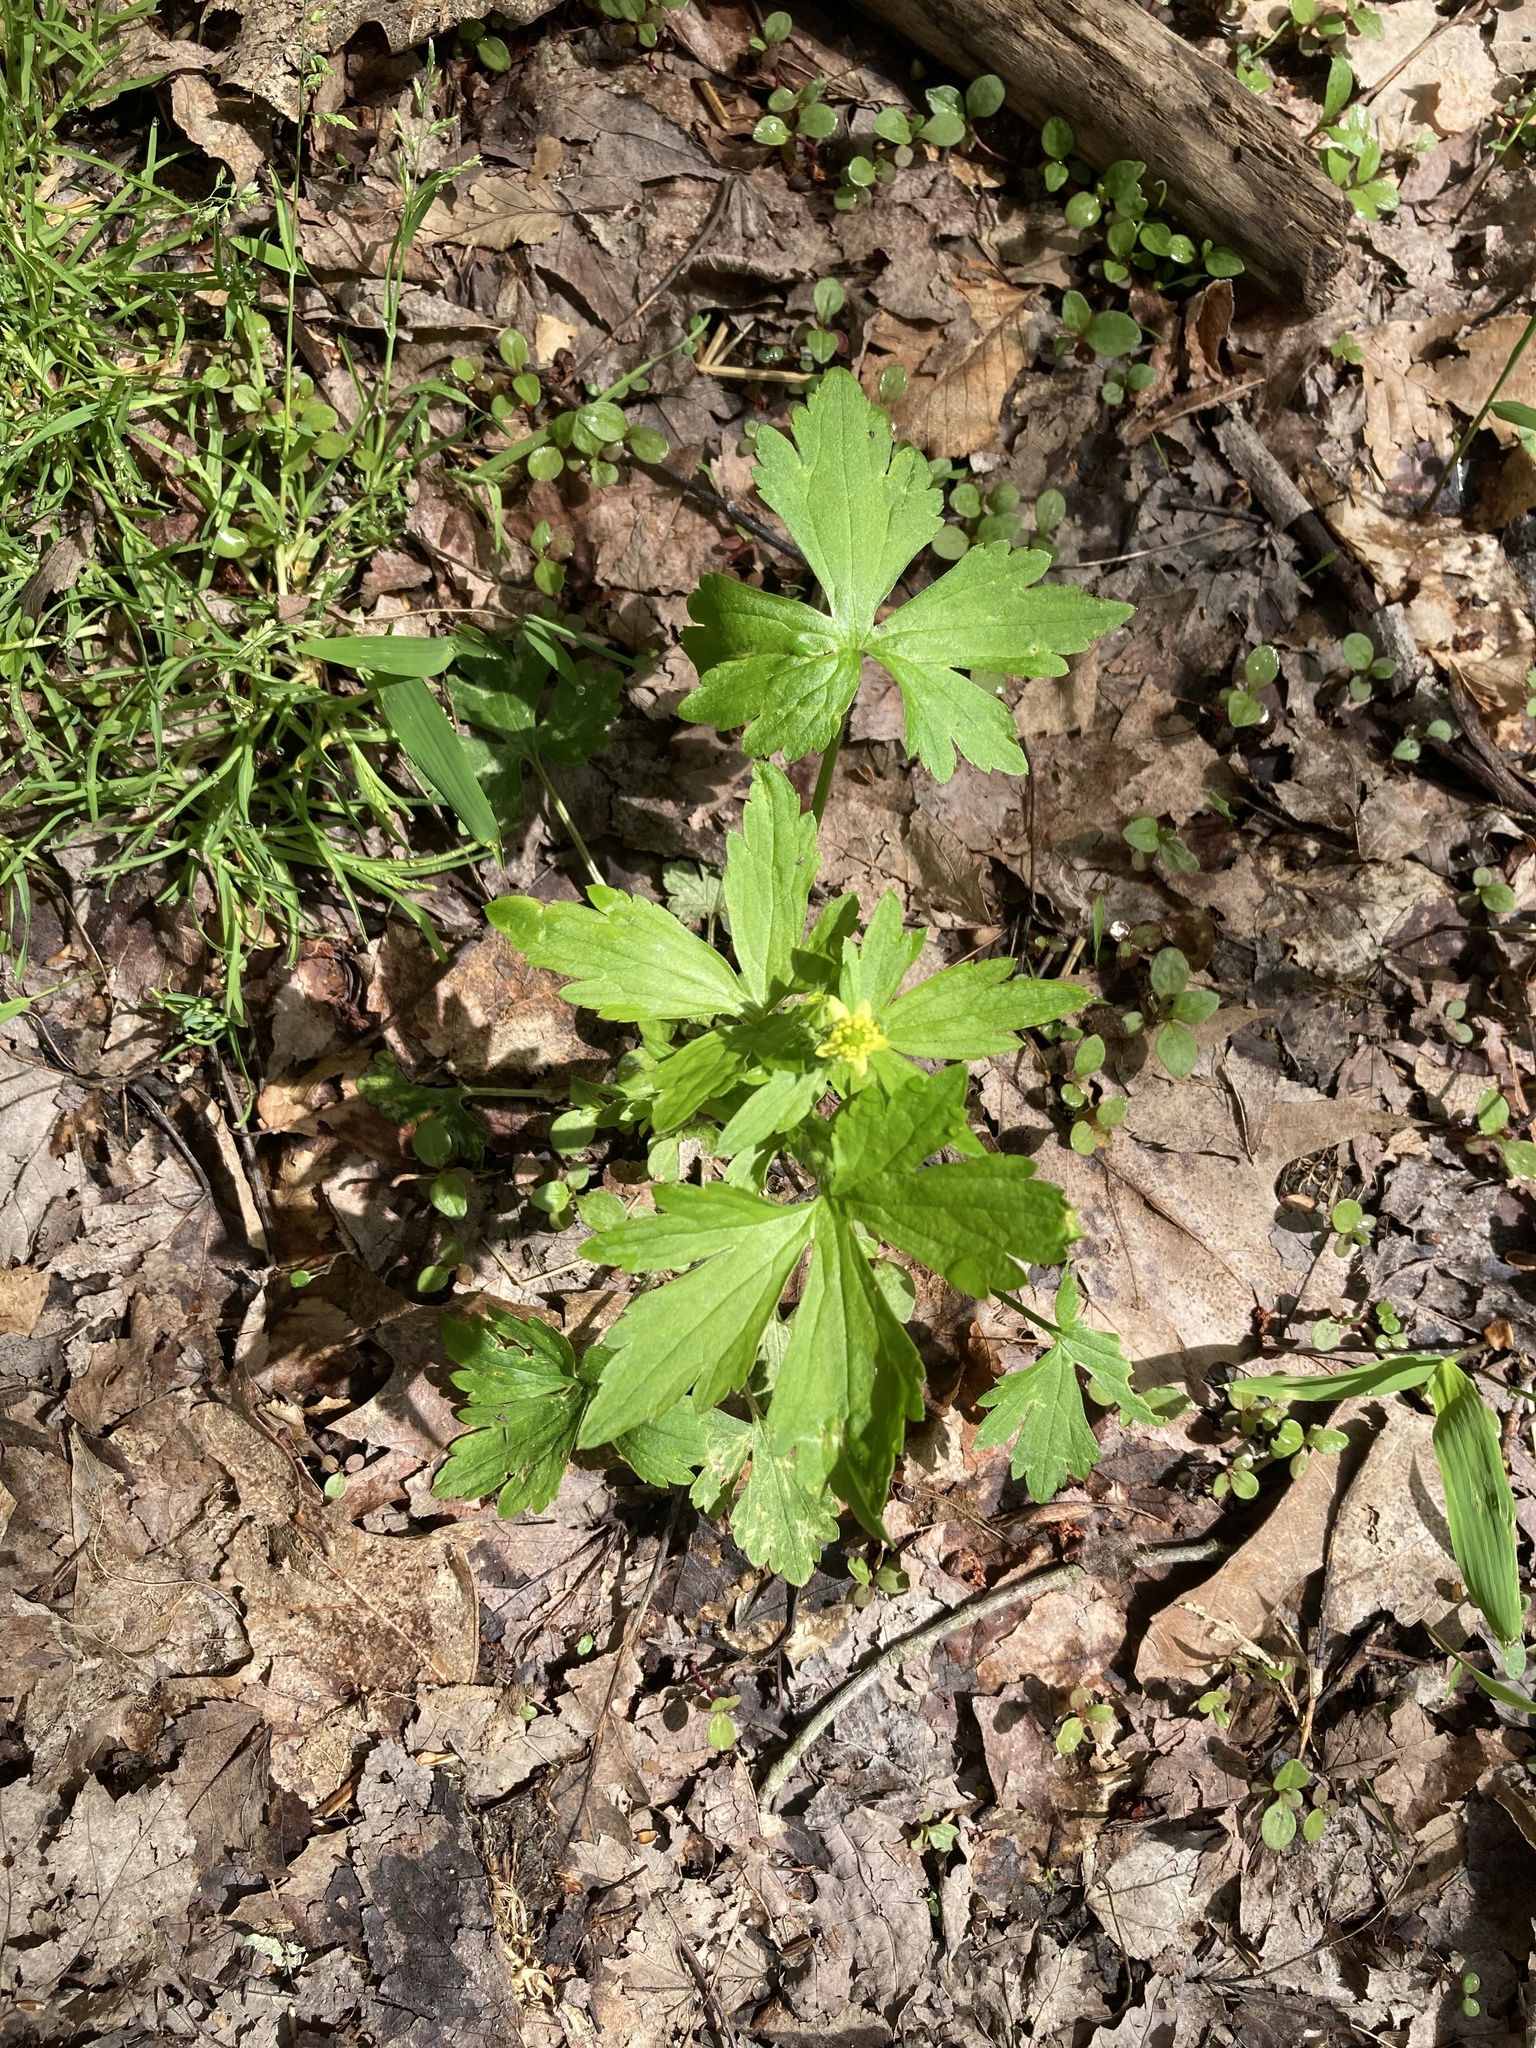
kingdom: Plantae
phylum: Tracheophyta
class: Magnoliopsida
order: Ranunculales
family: Ranunculaceae
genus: Ranunculus
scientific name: Ranunculus recurvatus
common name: Blisterwort
